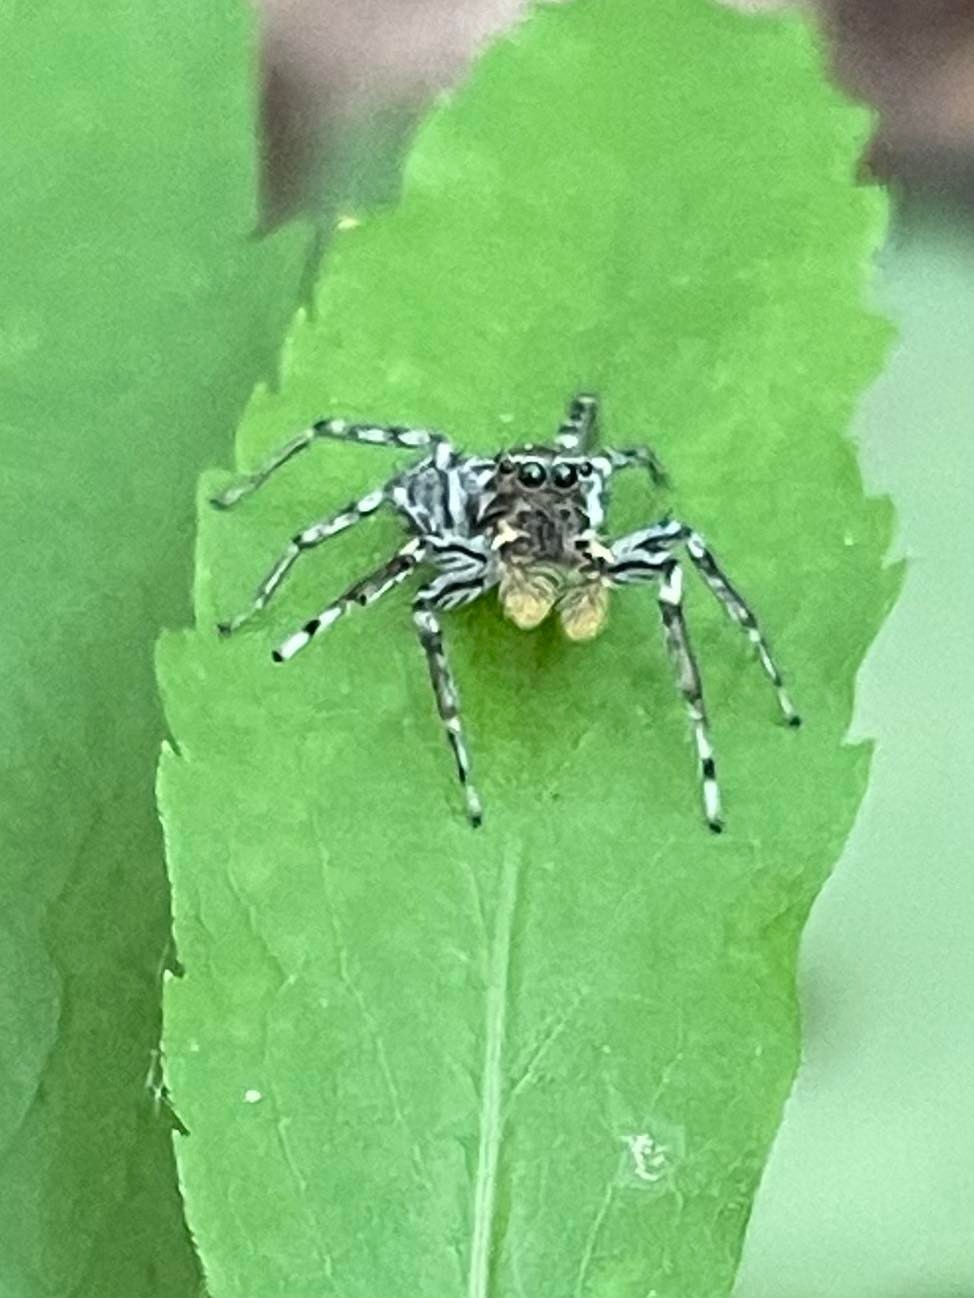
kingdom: Animalia
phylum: Arthropoda
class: Arachnida
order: Araneae
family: Salticidae
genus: Maevia
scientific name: Maevia inclemens
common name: Dimorphic jumper
